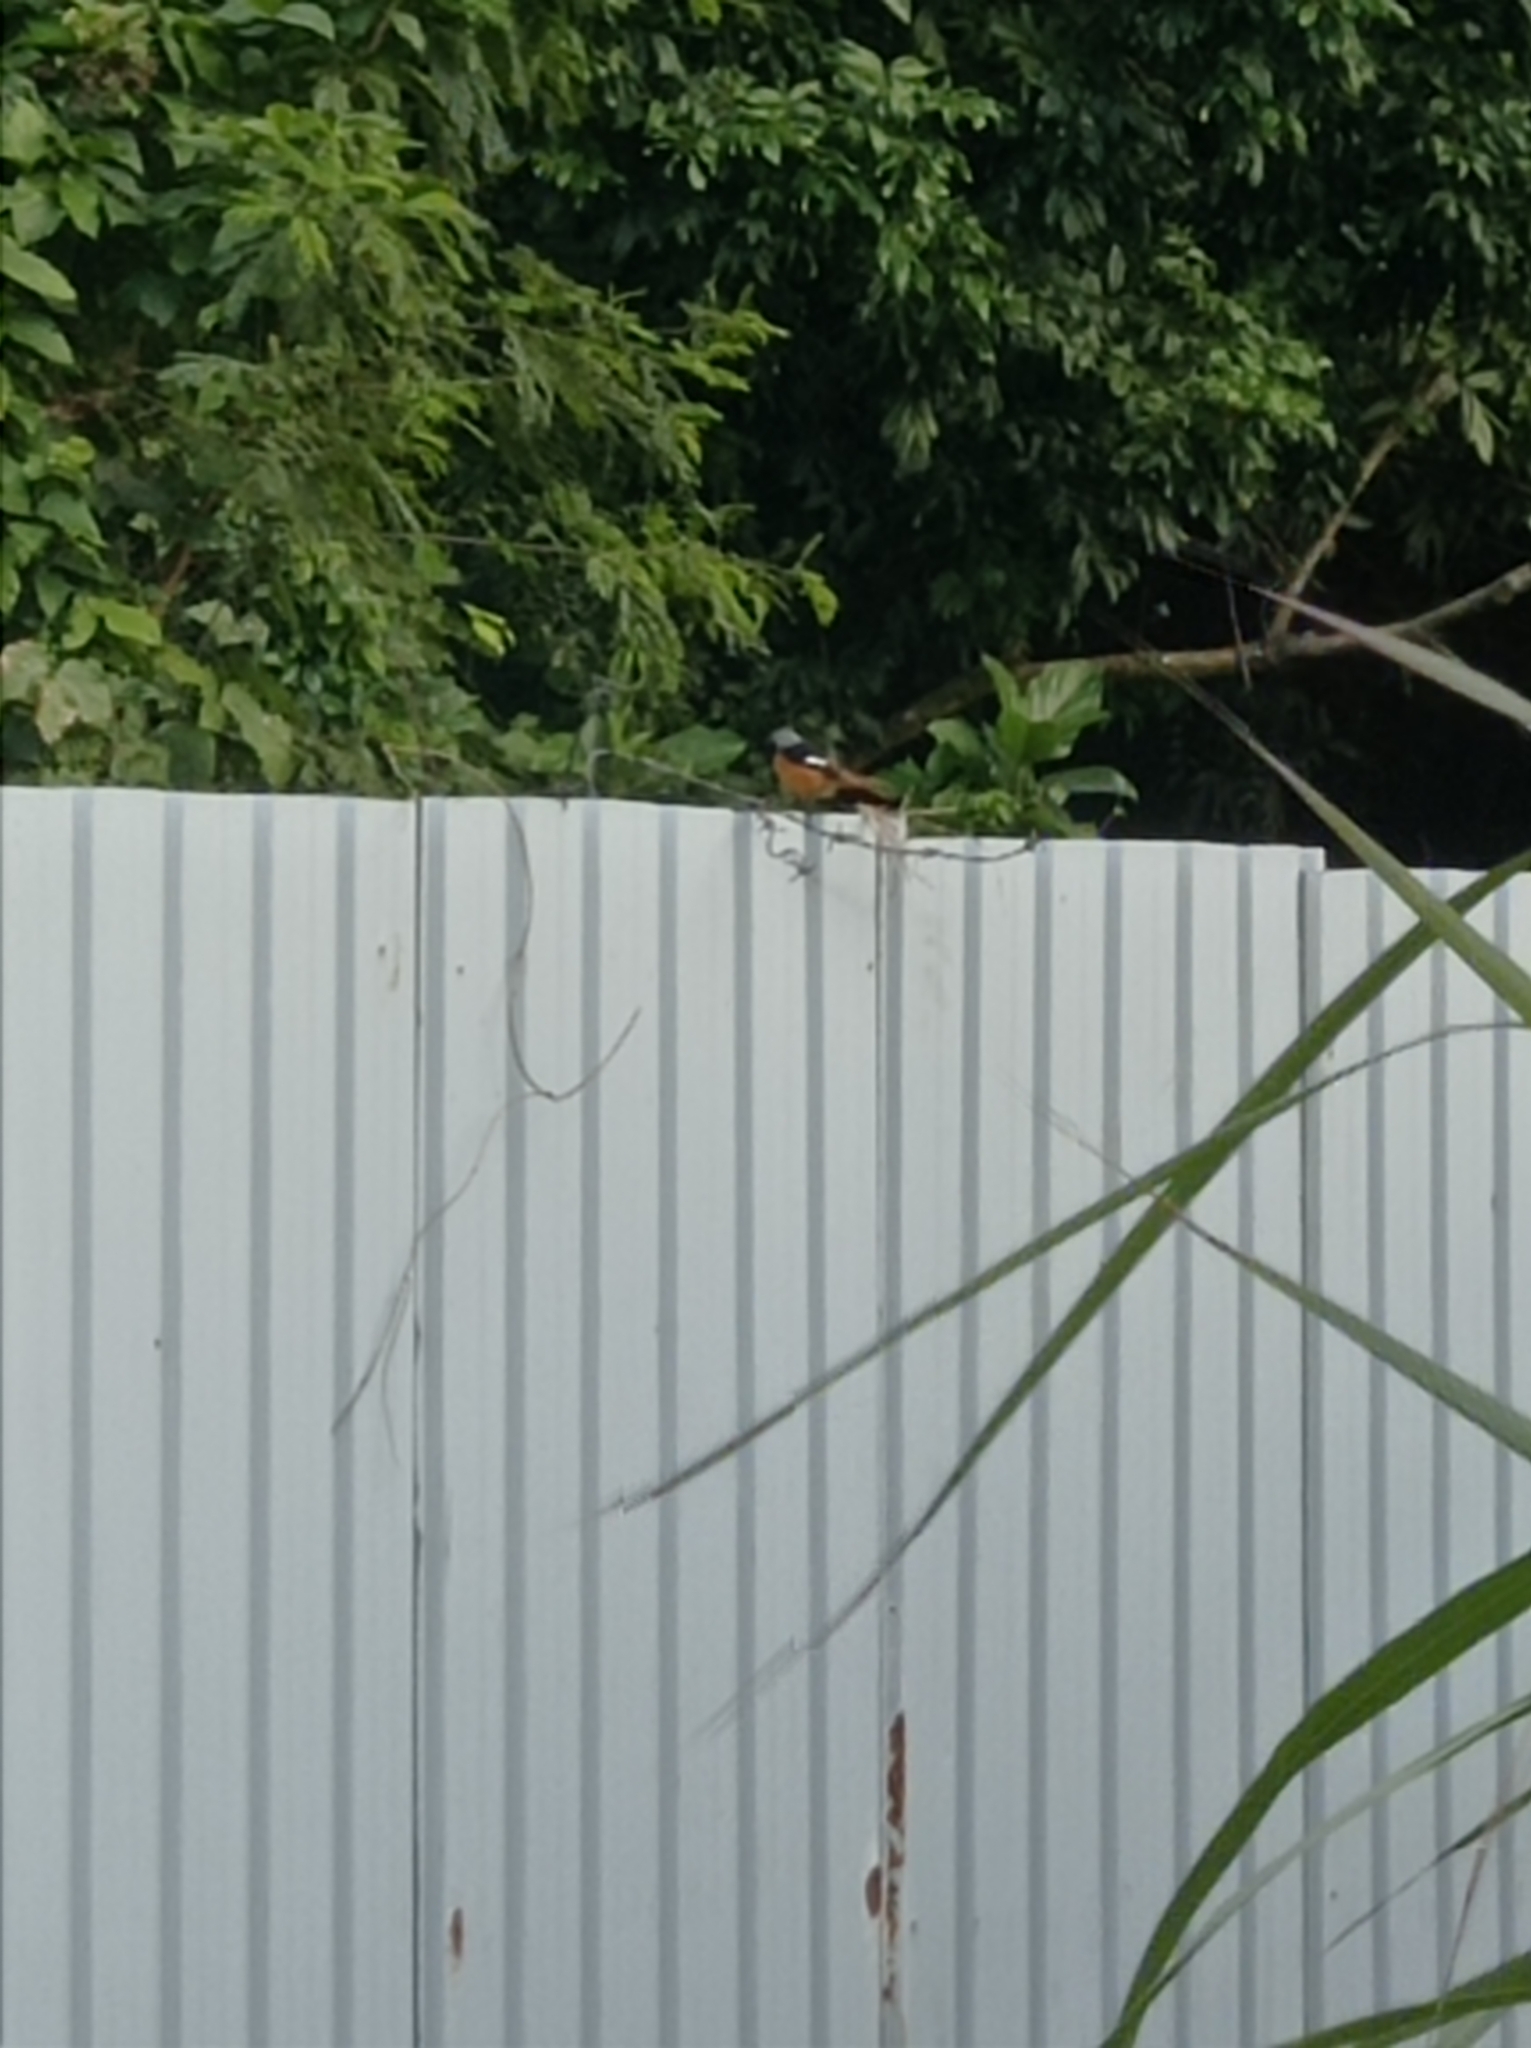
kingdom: Animalia
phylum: Chordata
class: Aves
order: Passeriformes
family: Muscicapidae
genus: Phoenicurus
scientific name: Phoenicurus auroreus
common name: Daurian redstart
